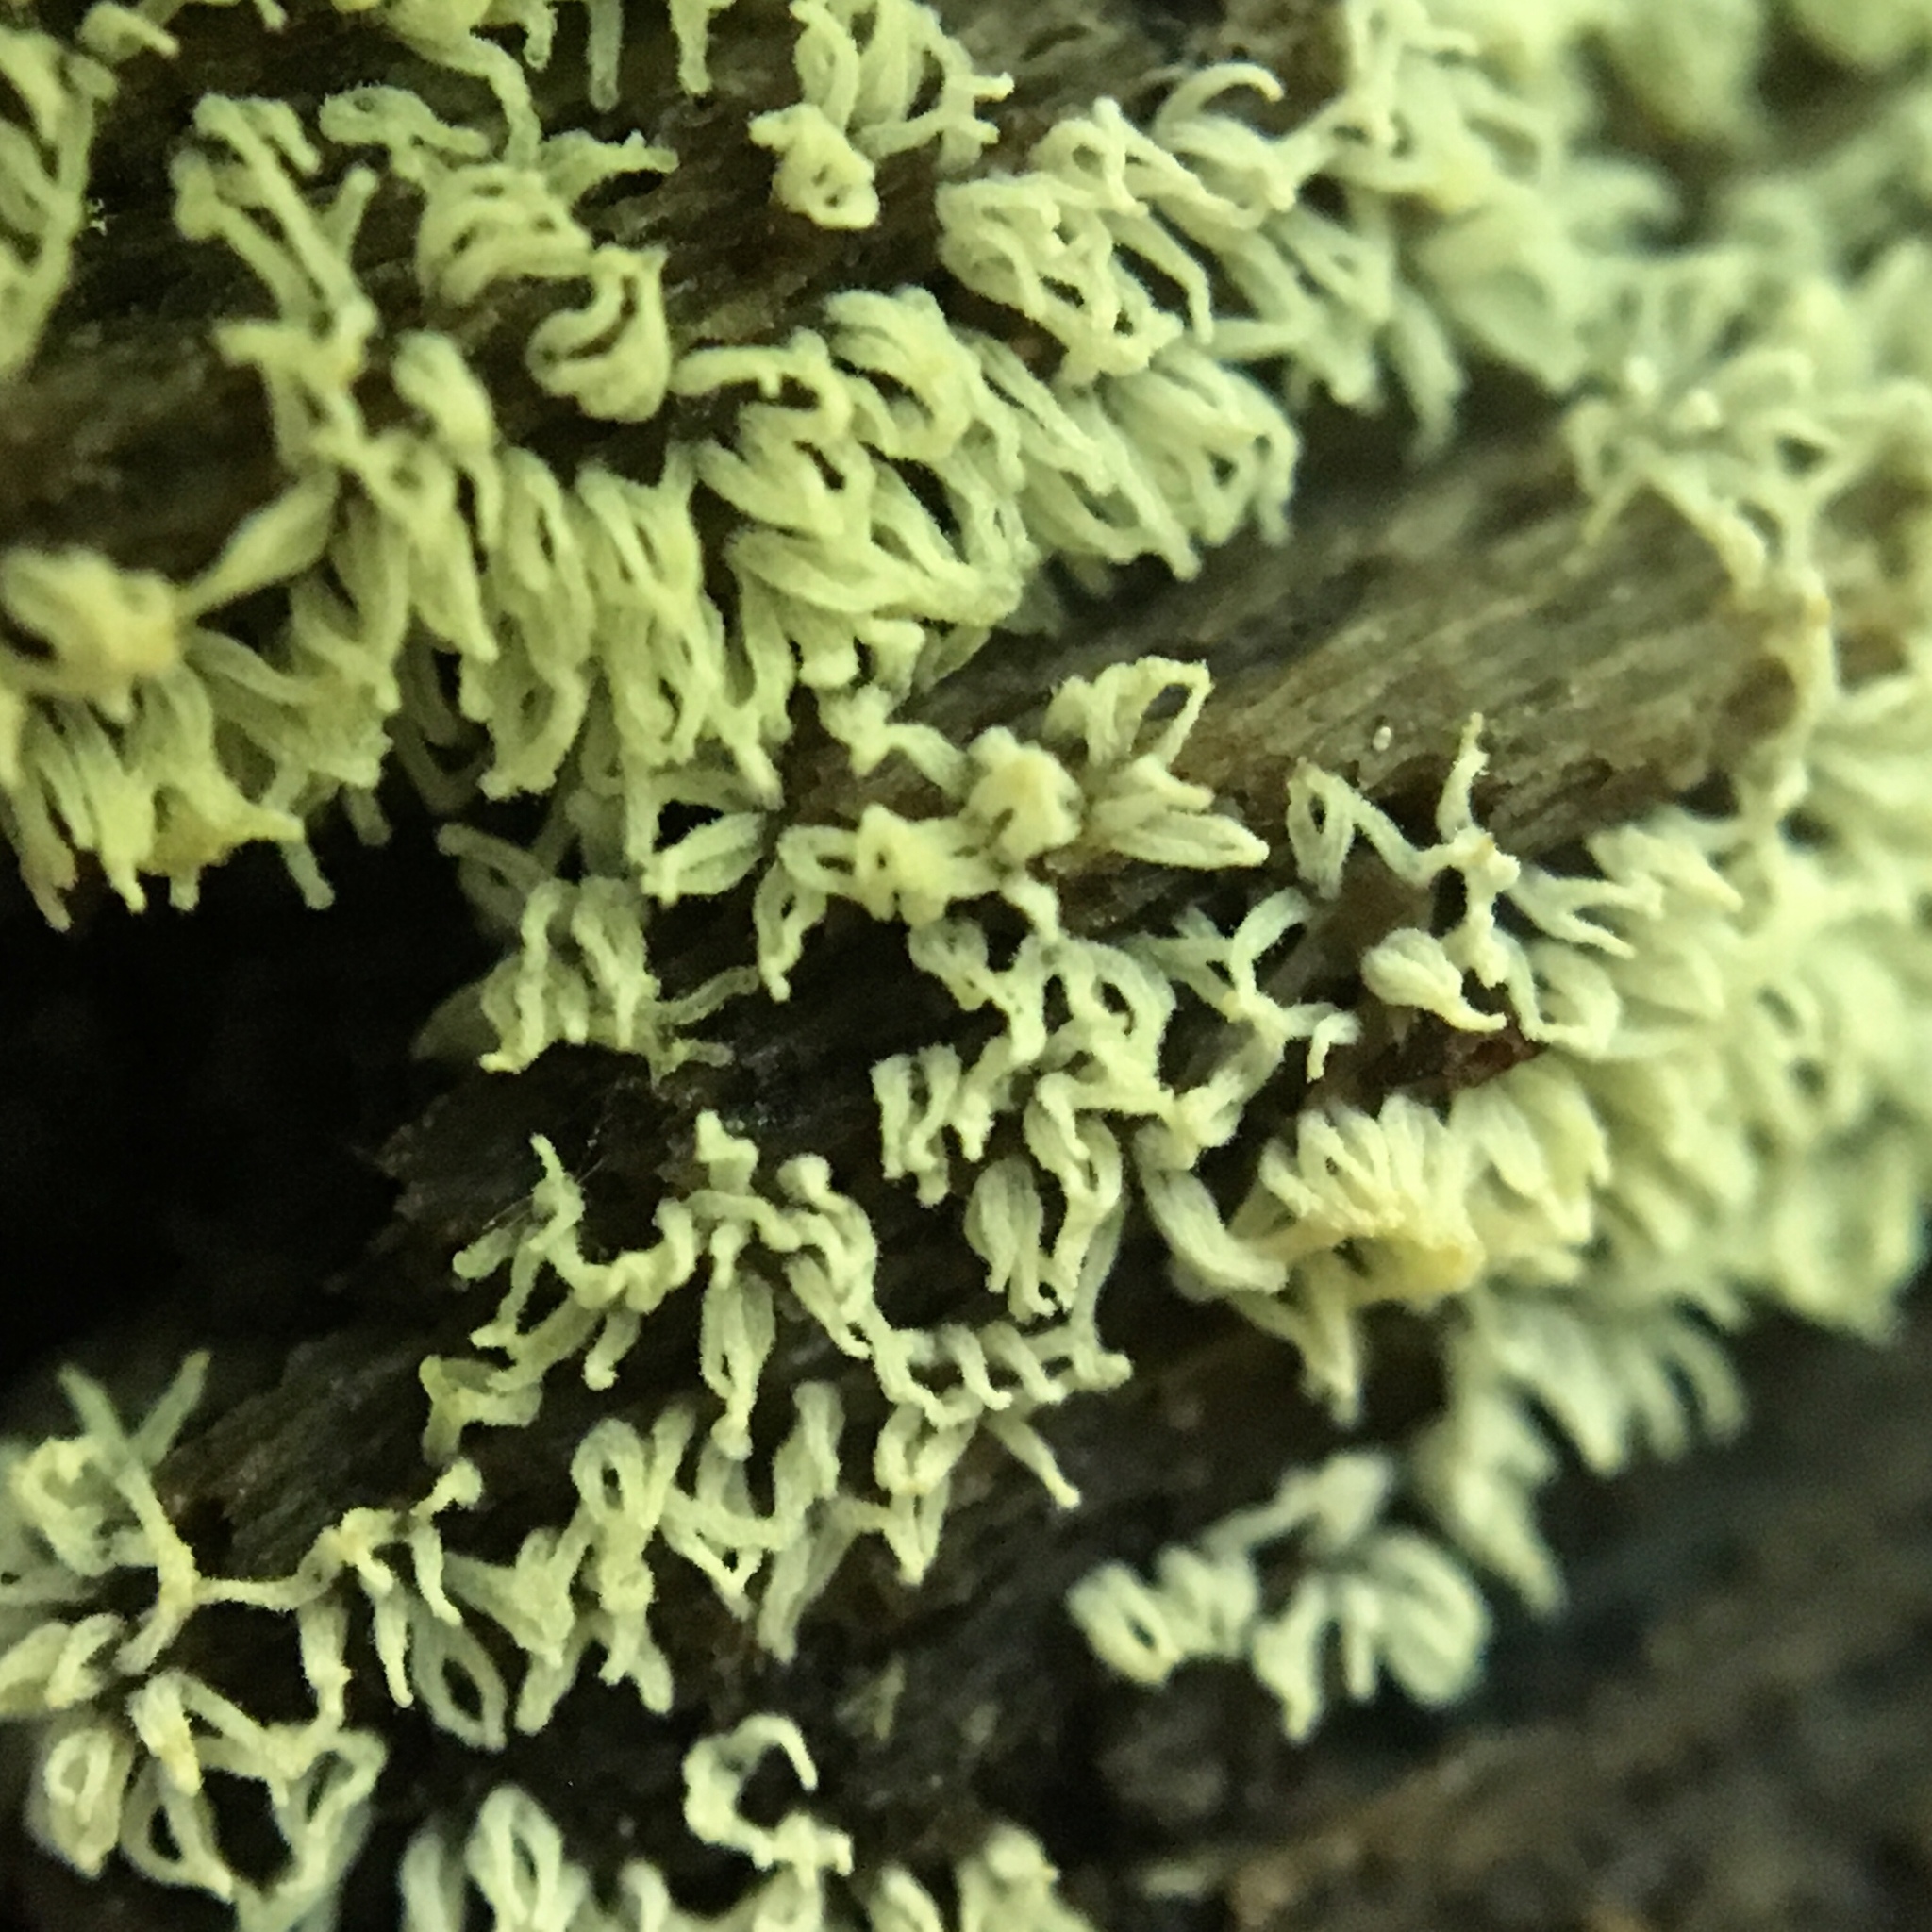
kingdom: Protozoa
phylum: Mycetozoa
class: Protosteliomycetes
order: Ceratiomyxales
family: Ceratiomyxaceae
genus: Ceratiomyxa
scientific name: Ceratiomyxa fruticulosa
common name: Honeycomb coral slime mold
